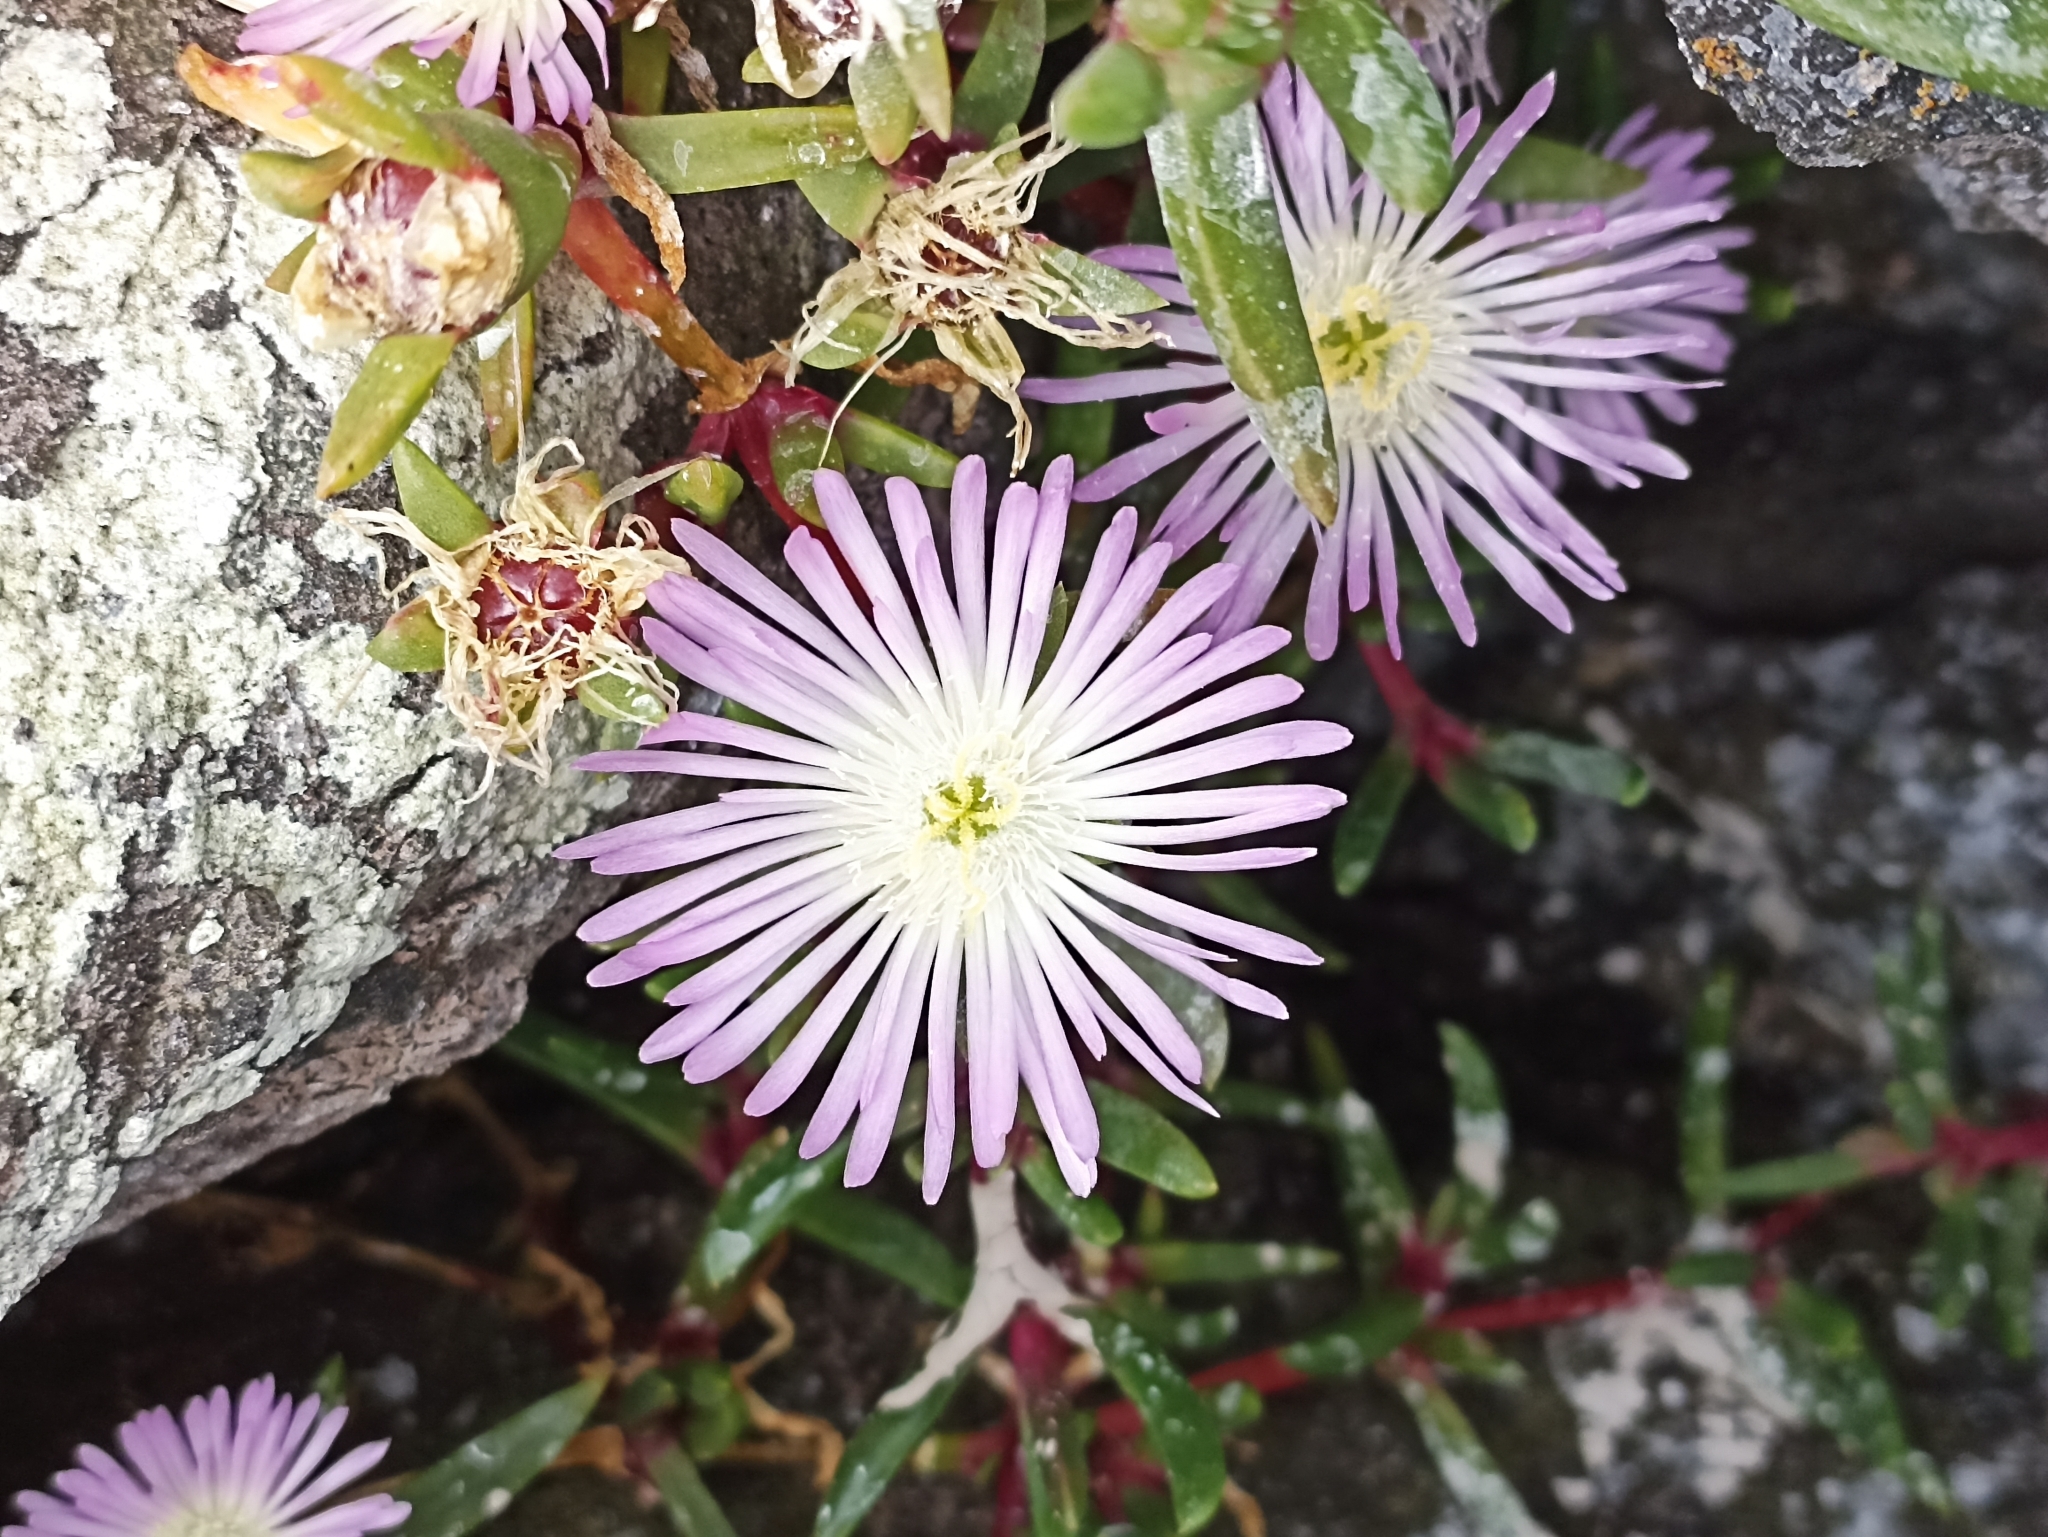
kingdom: Plantae
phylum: Tracheophyta
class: Magnoliopsida
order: Caryophyllales
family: Aizoaceae
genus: Disphyma
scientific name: Disphyma australe
